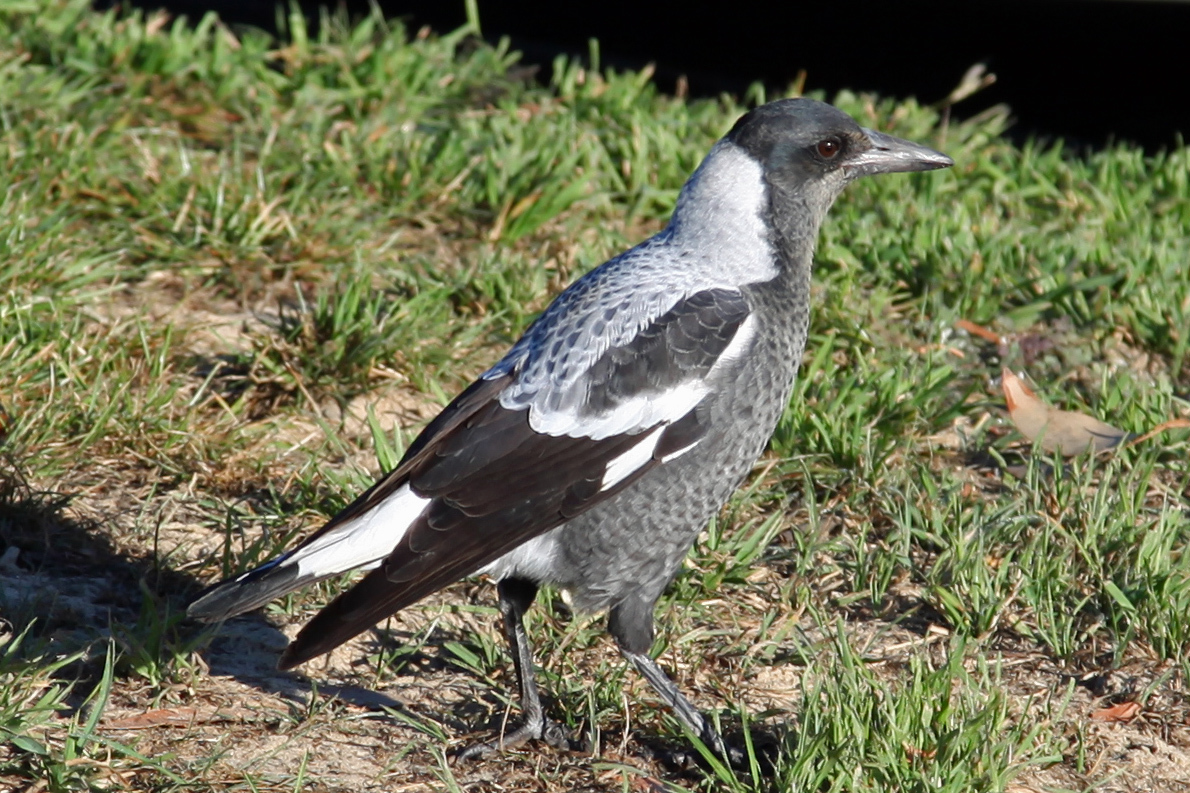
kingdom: Animalia
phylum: Chordata
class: Aves
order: Passeriformes
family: Cracticidae
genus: Gymnorhina
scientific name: Gymnorhina tibicen
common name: Australian magpie
